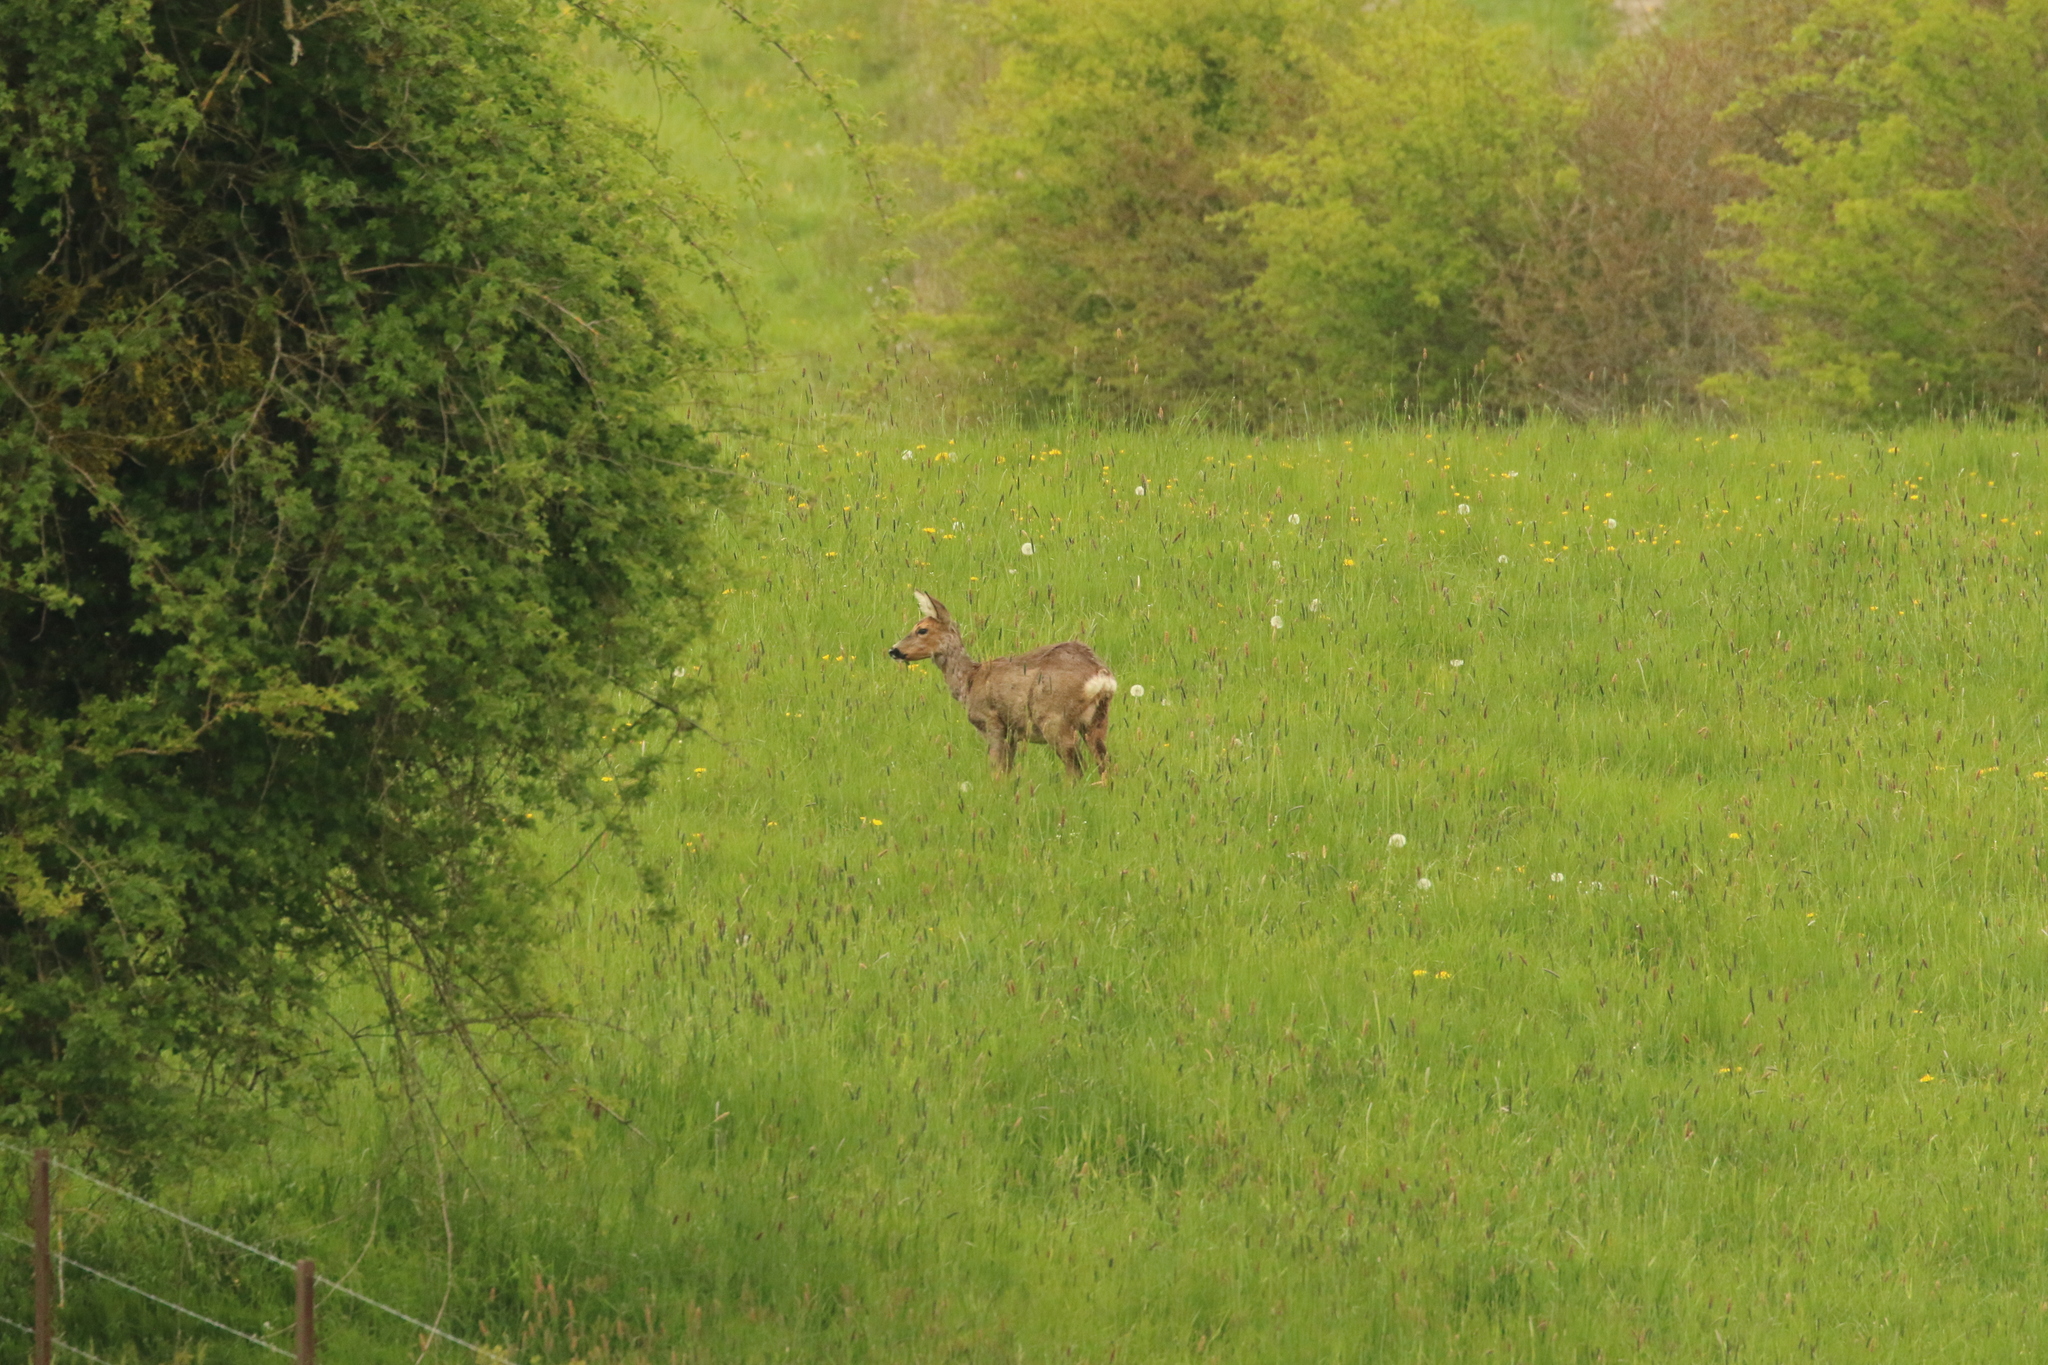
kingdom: Animalia
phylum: Chordata
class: Mammalia
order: Artiodactyla
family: Cervidae
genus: Capreolus
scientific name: Capreolus capreolus
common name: Western roe deer
